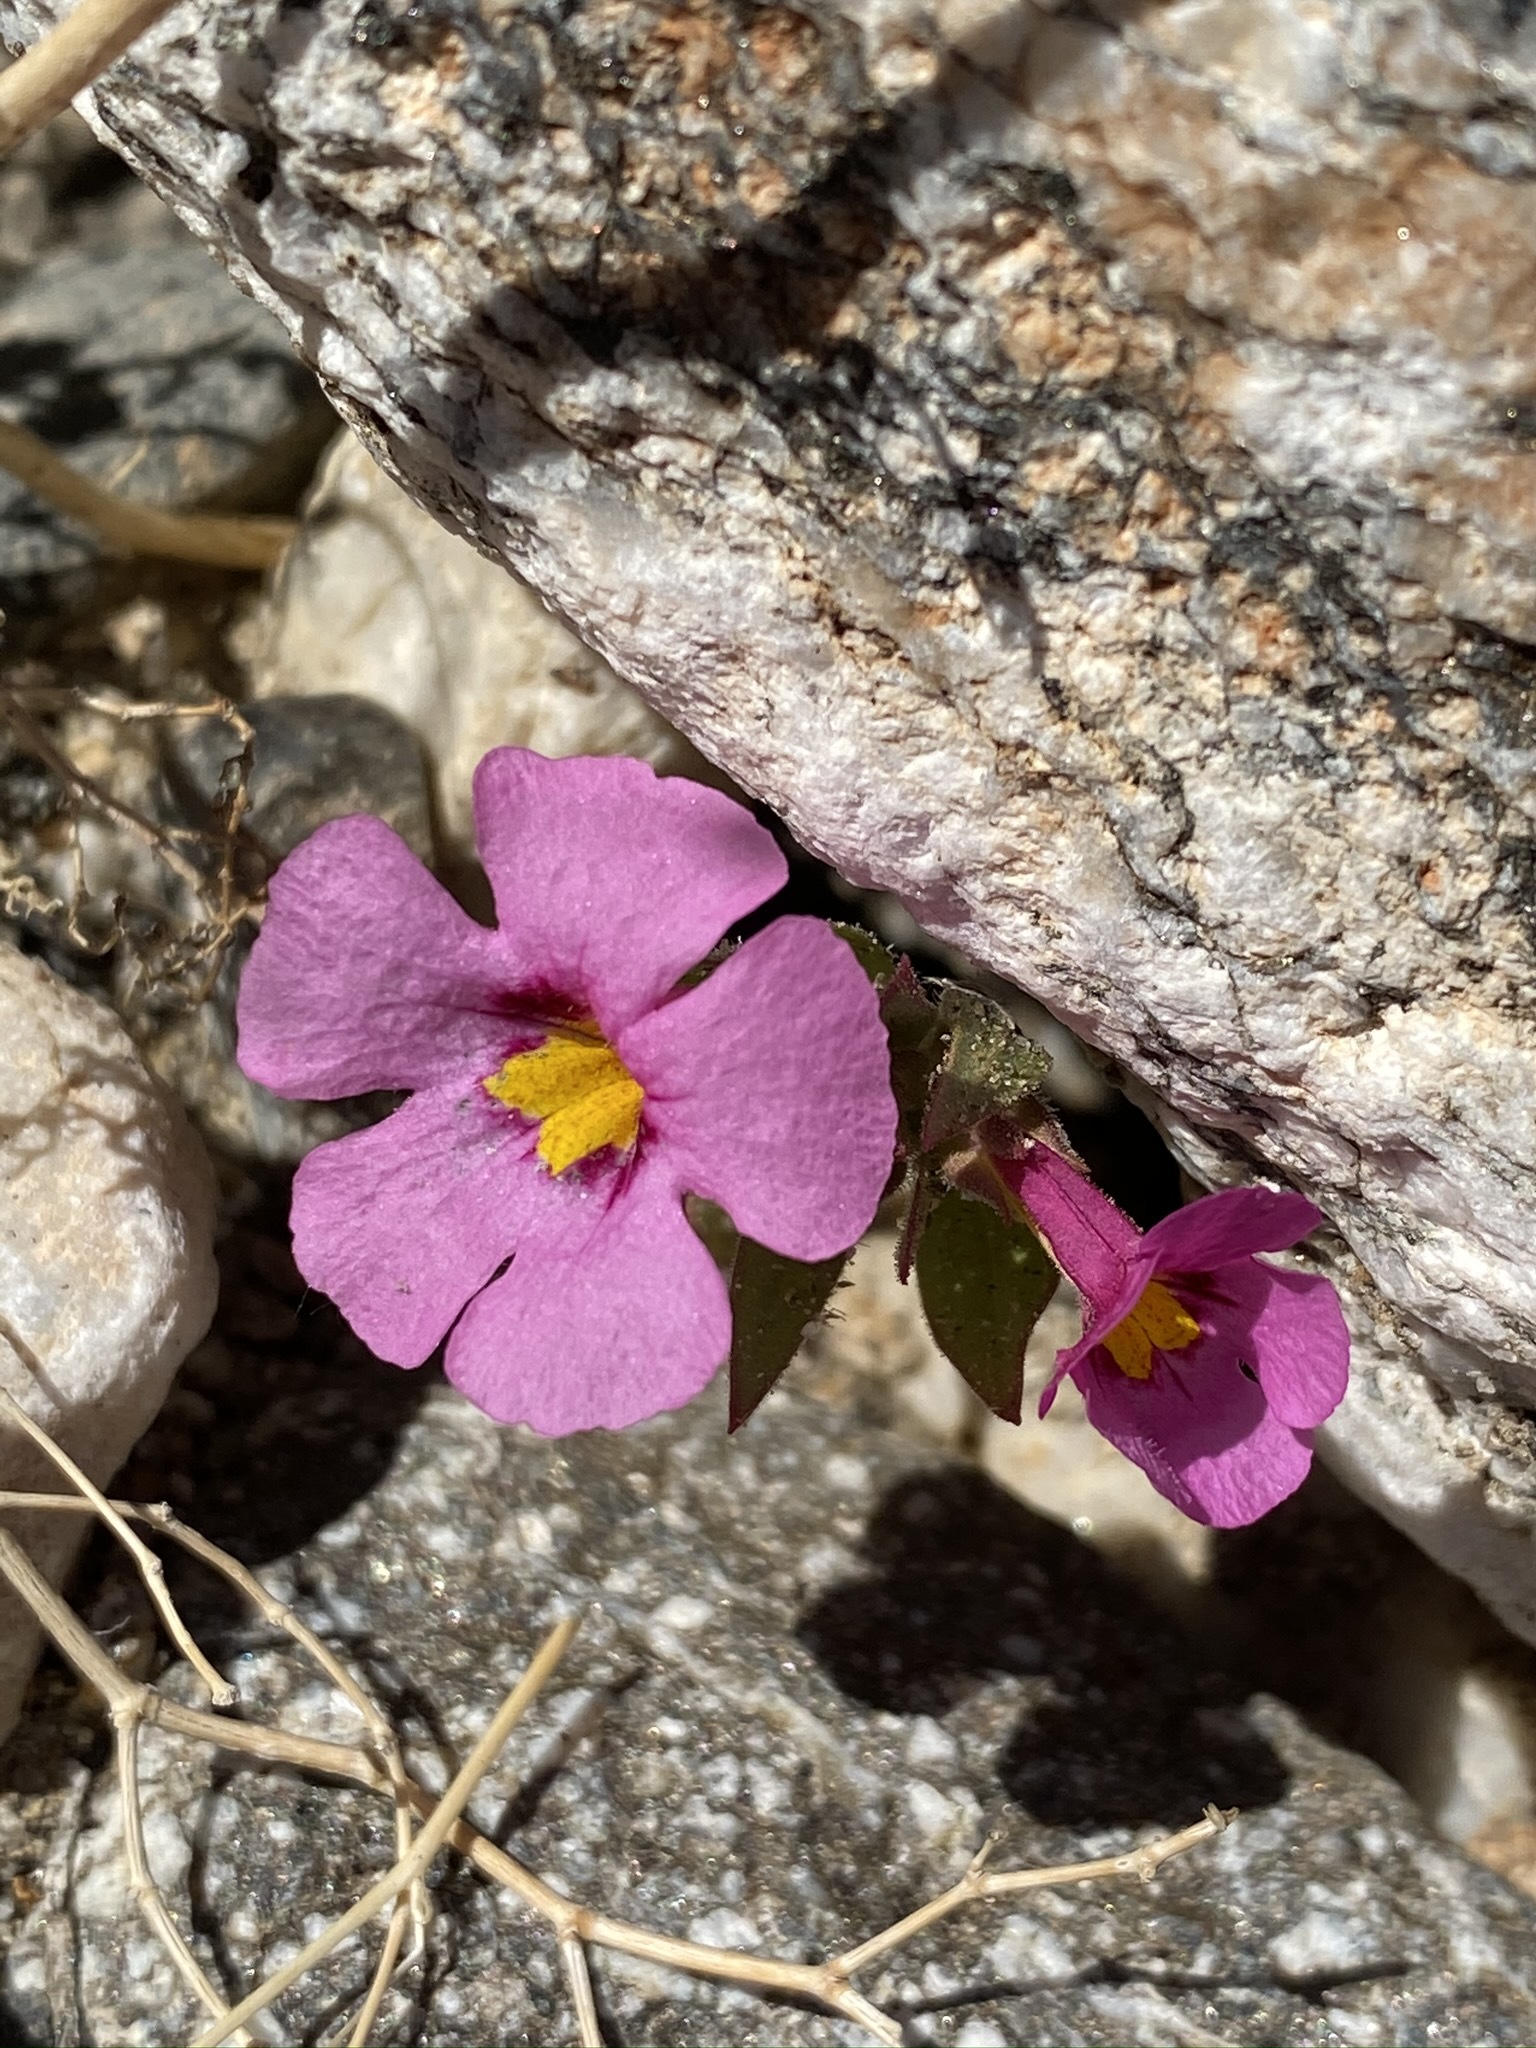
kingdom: Plantae
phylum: Tracheophyta
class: Magnoliopsida
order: Lamiales
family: Phrymaceae
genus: Diplacus
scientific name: Diplacus bigelovii
